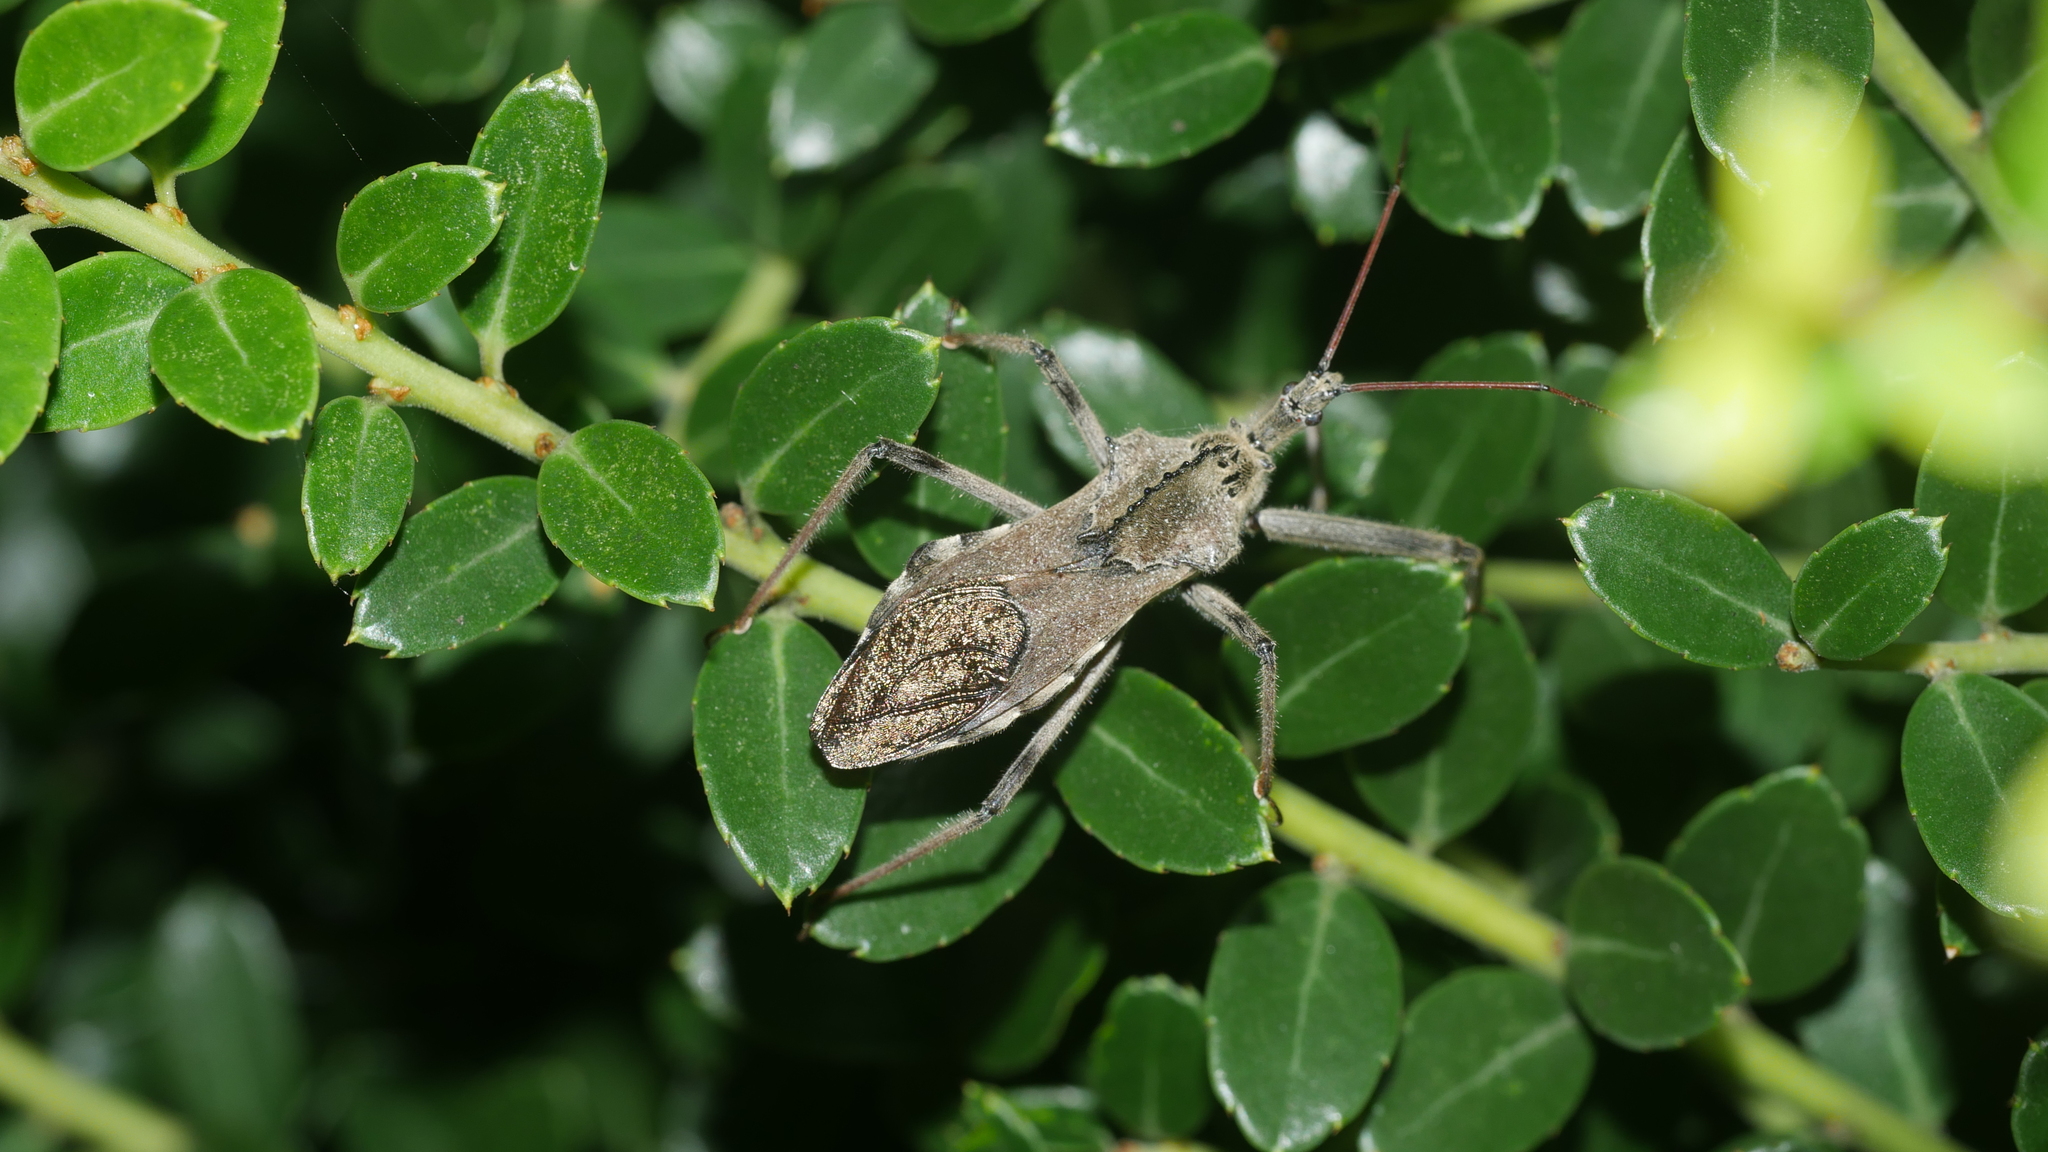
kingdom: Animalia
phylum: Arthropoda
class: Insecta
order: Hemiptera
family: Reduviidae
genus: Arilus
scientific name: Arilus cristatus
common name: North american wheel bug
